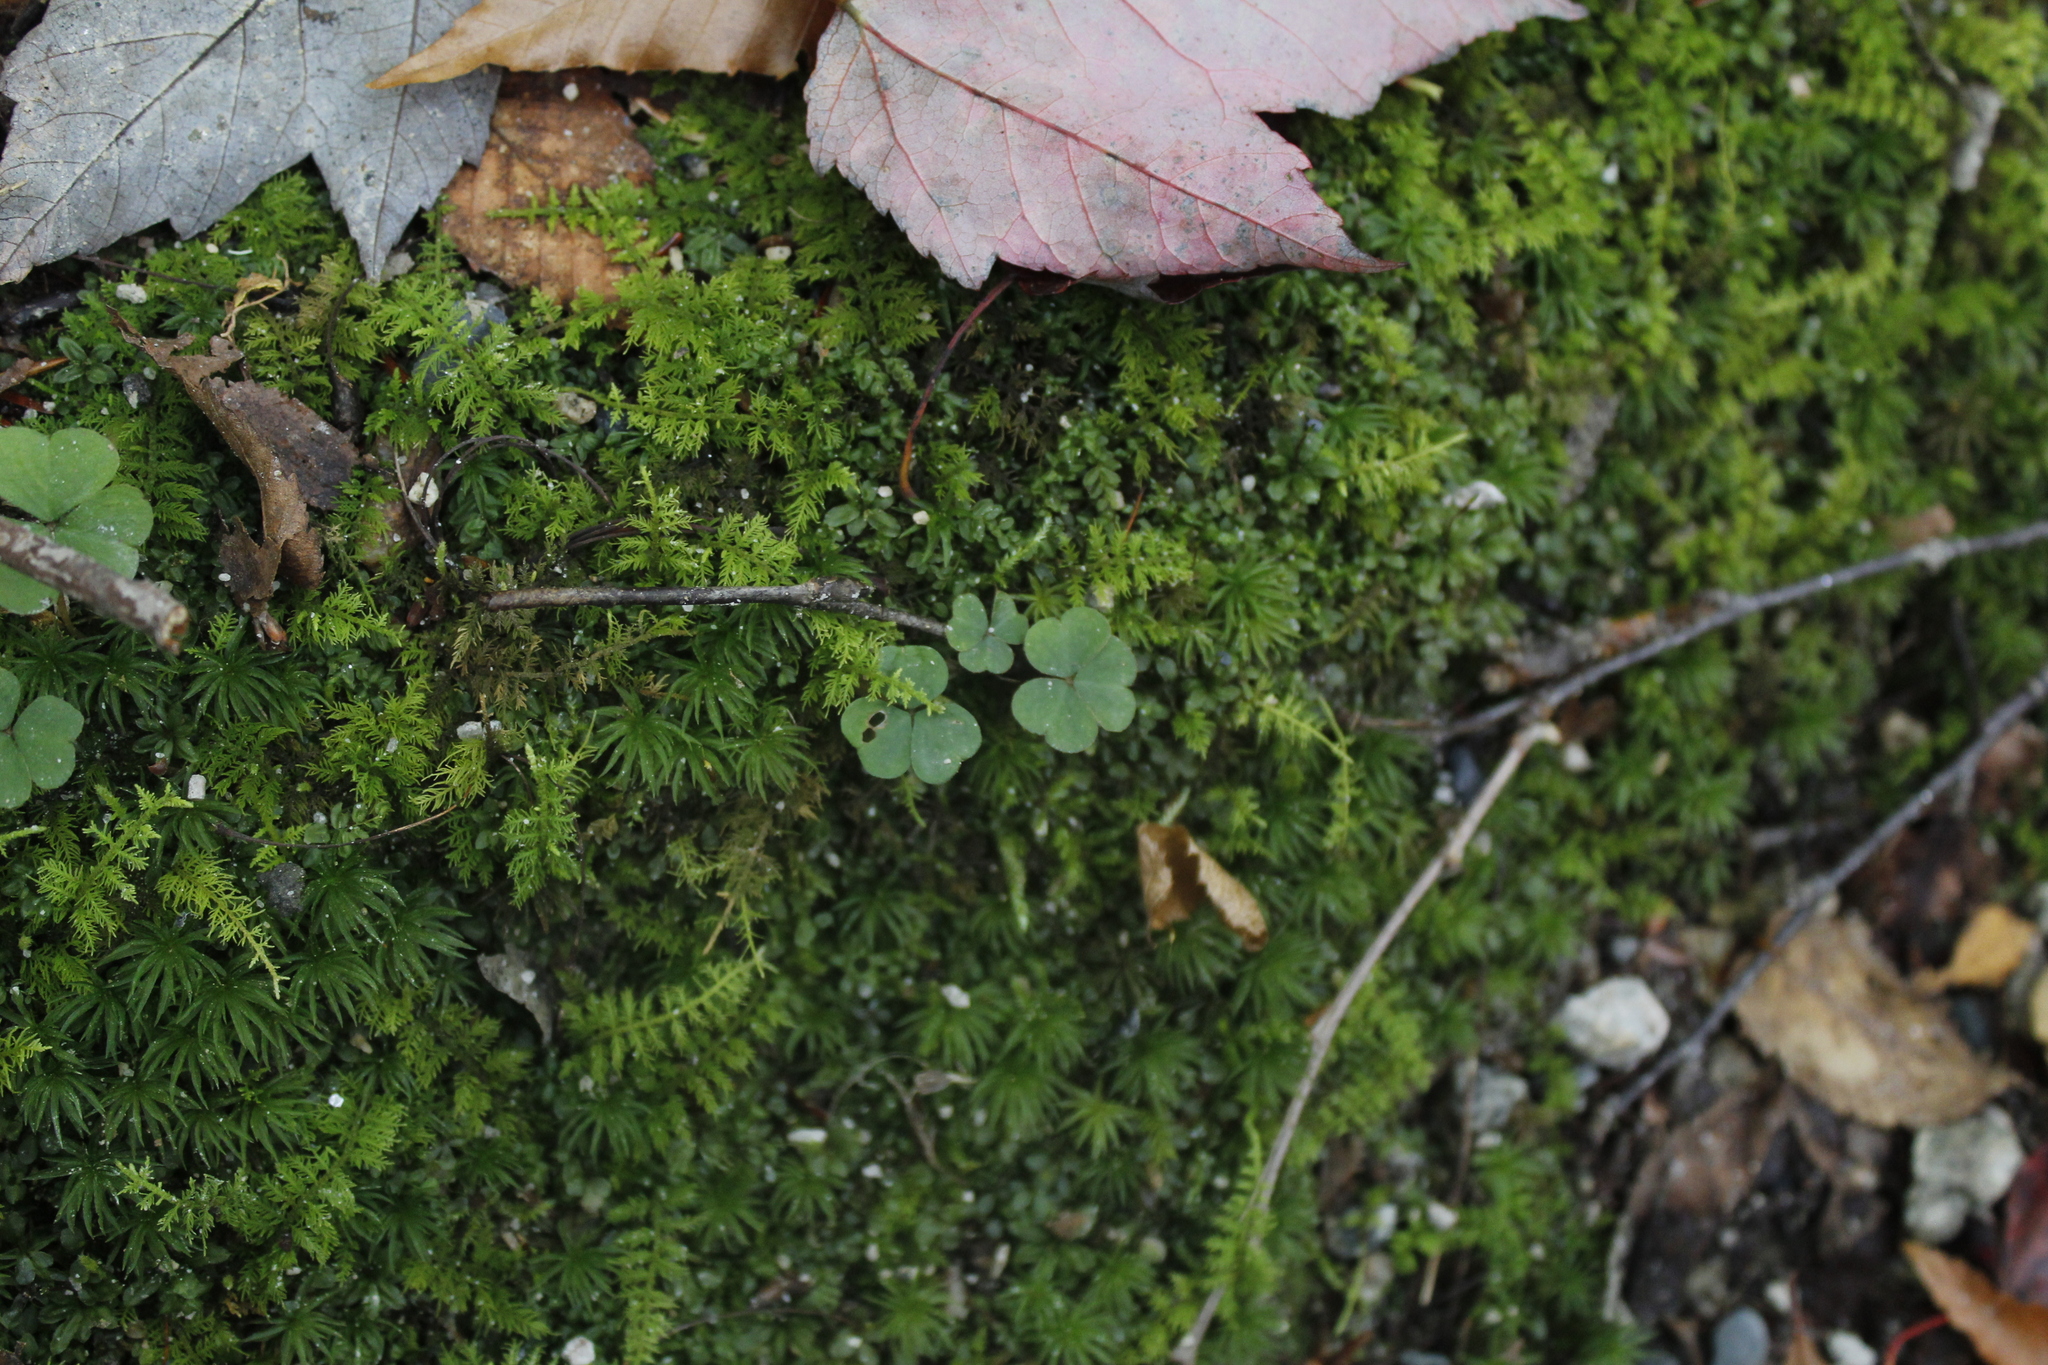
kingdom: Plantae
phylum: Tracheophyta
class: Magnoliopsida
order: Oxalidales
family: Oxalidaceae
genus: Oxalis
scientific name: Oxalis montana
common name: American wood-sorrel
